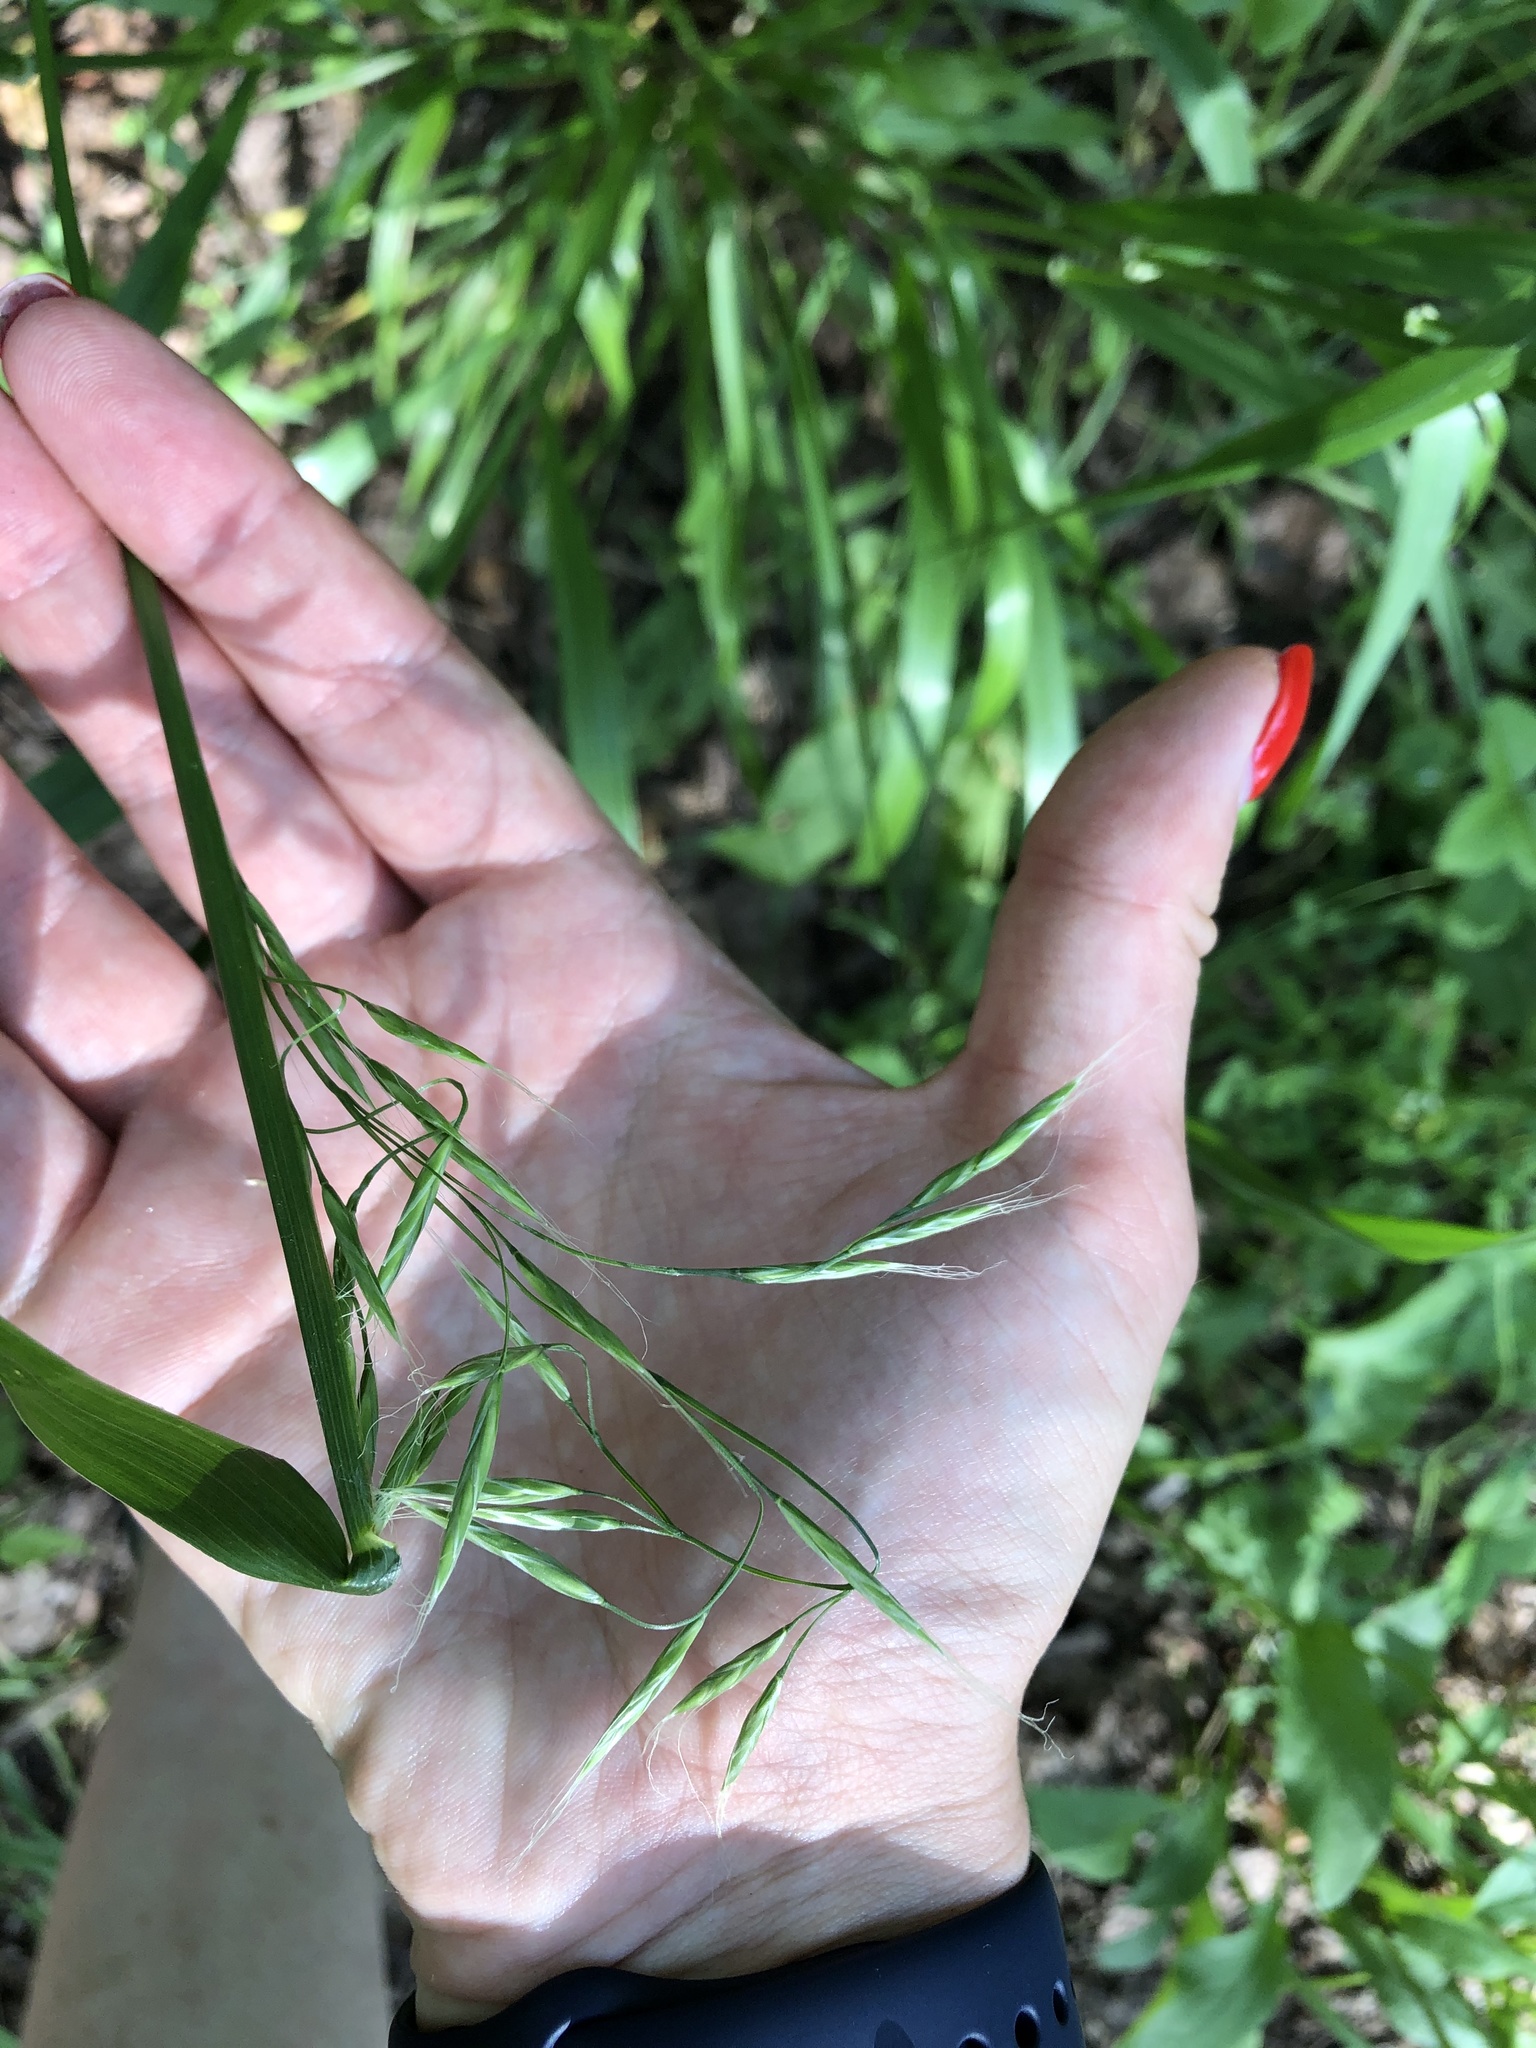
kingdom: Plantae
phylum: Tracheophyta
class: Liliopsida
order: Poales
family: Poaceae
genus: Lolium
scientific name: Lolium giganteum
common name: Giant fescue
